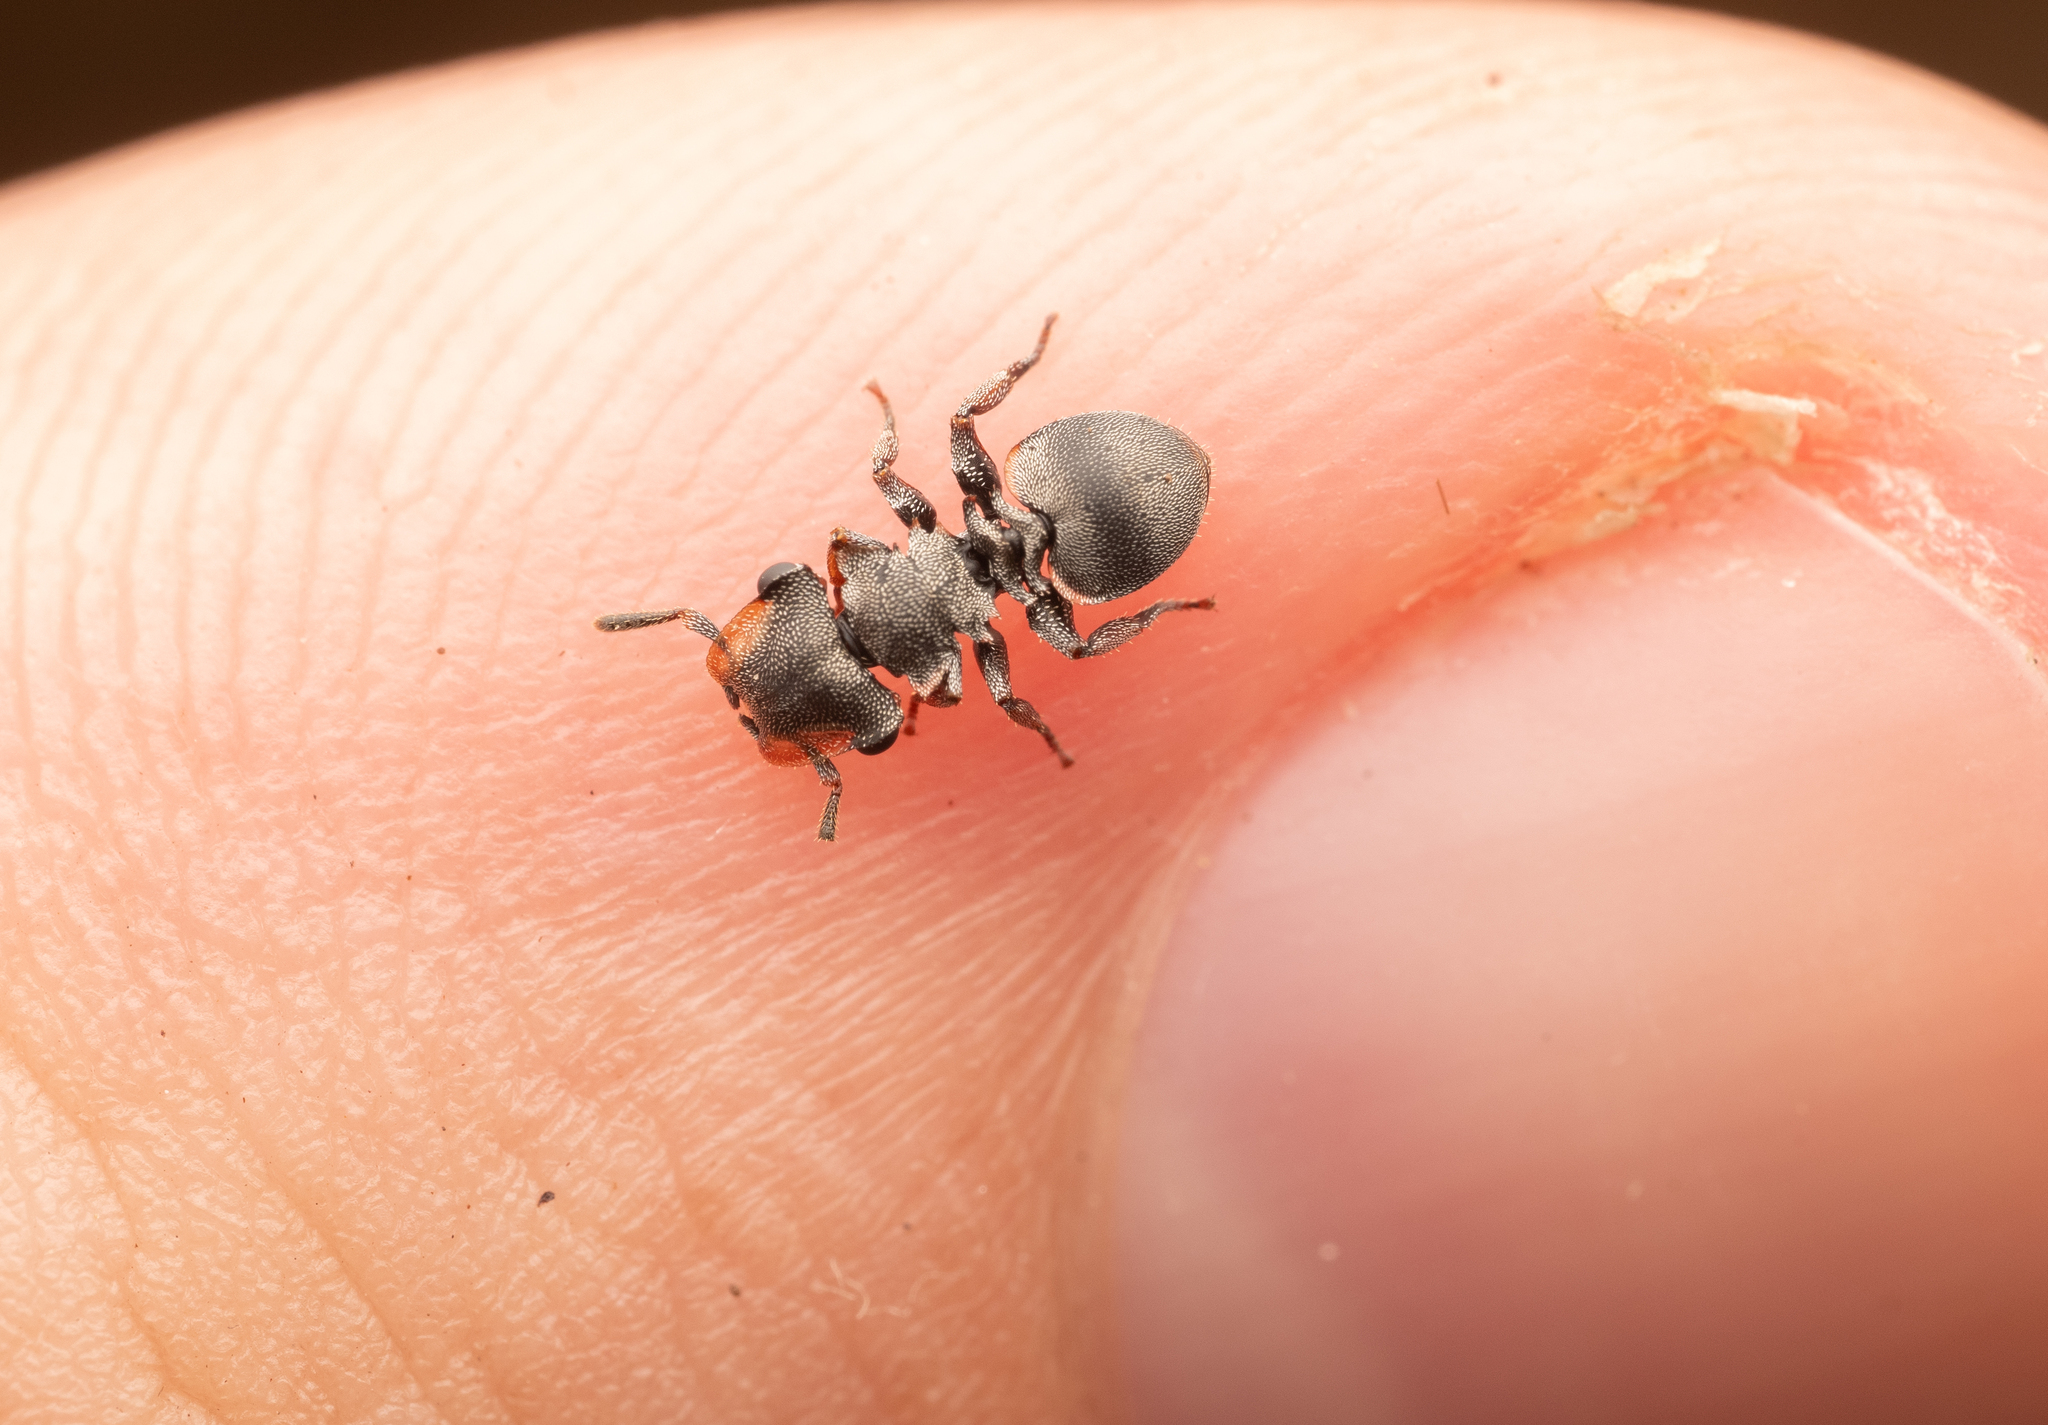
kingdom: Animalia
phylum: Arthropoda
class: Insecta
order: Hymenoptera
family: Formicidae
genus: Cephalotes
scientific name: Cephalotes cordatus
